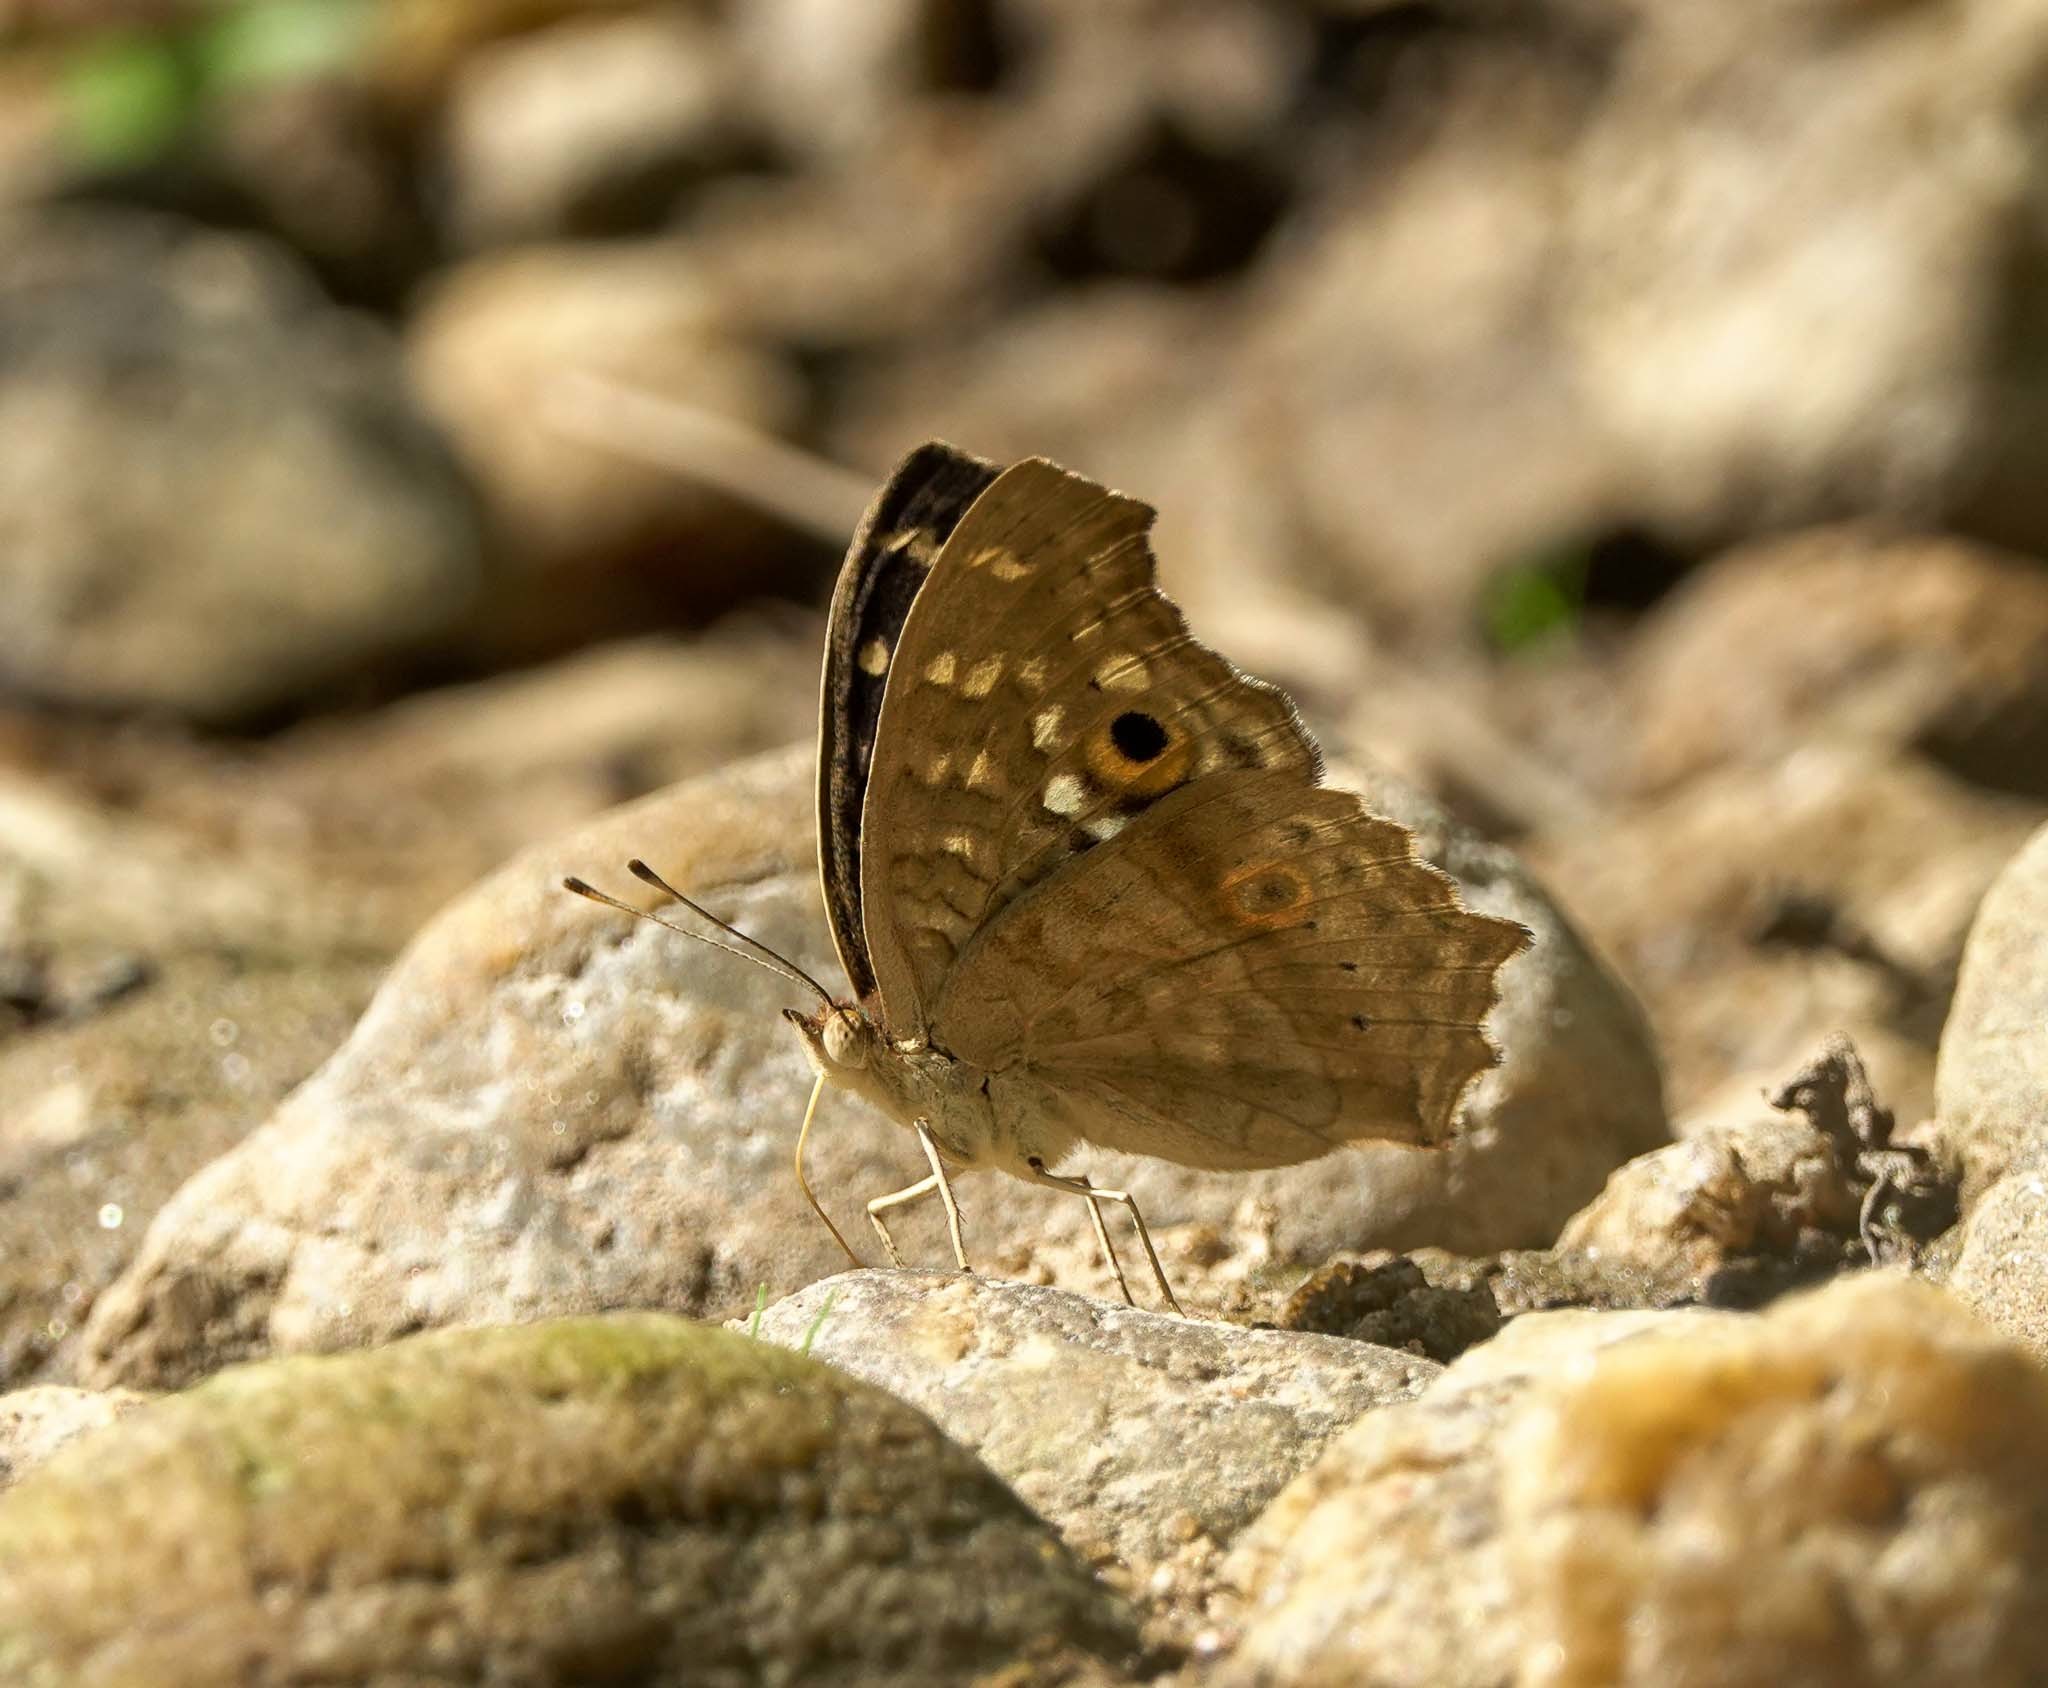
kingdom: Animalia
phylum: Arthropoda
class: Insecta
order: Lepidoptera
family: Nymphalidae
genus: Junonia
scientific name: Junonia lemonias
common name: Lemon pansy
